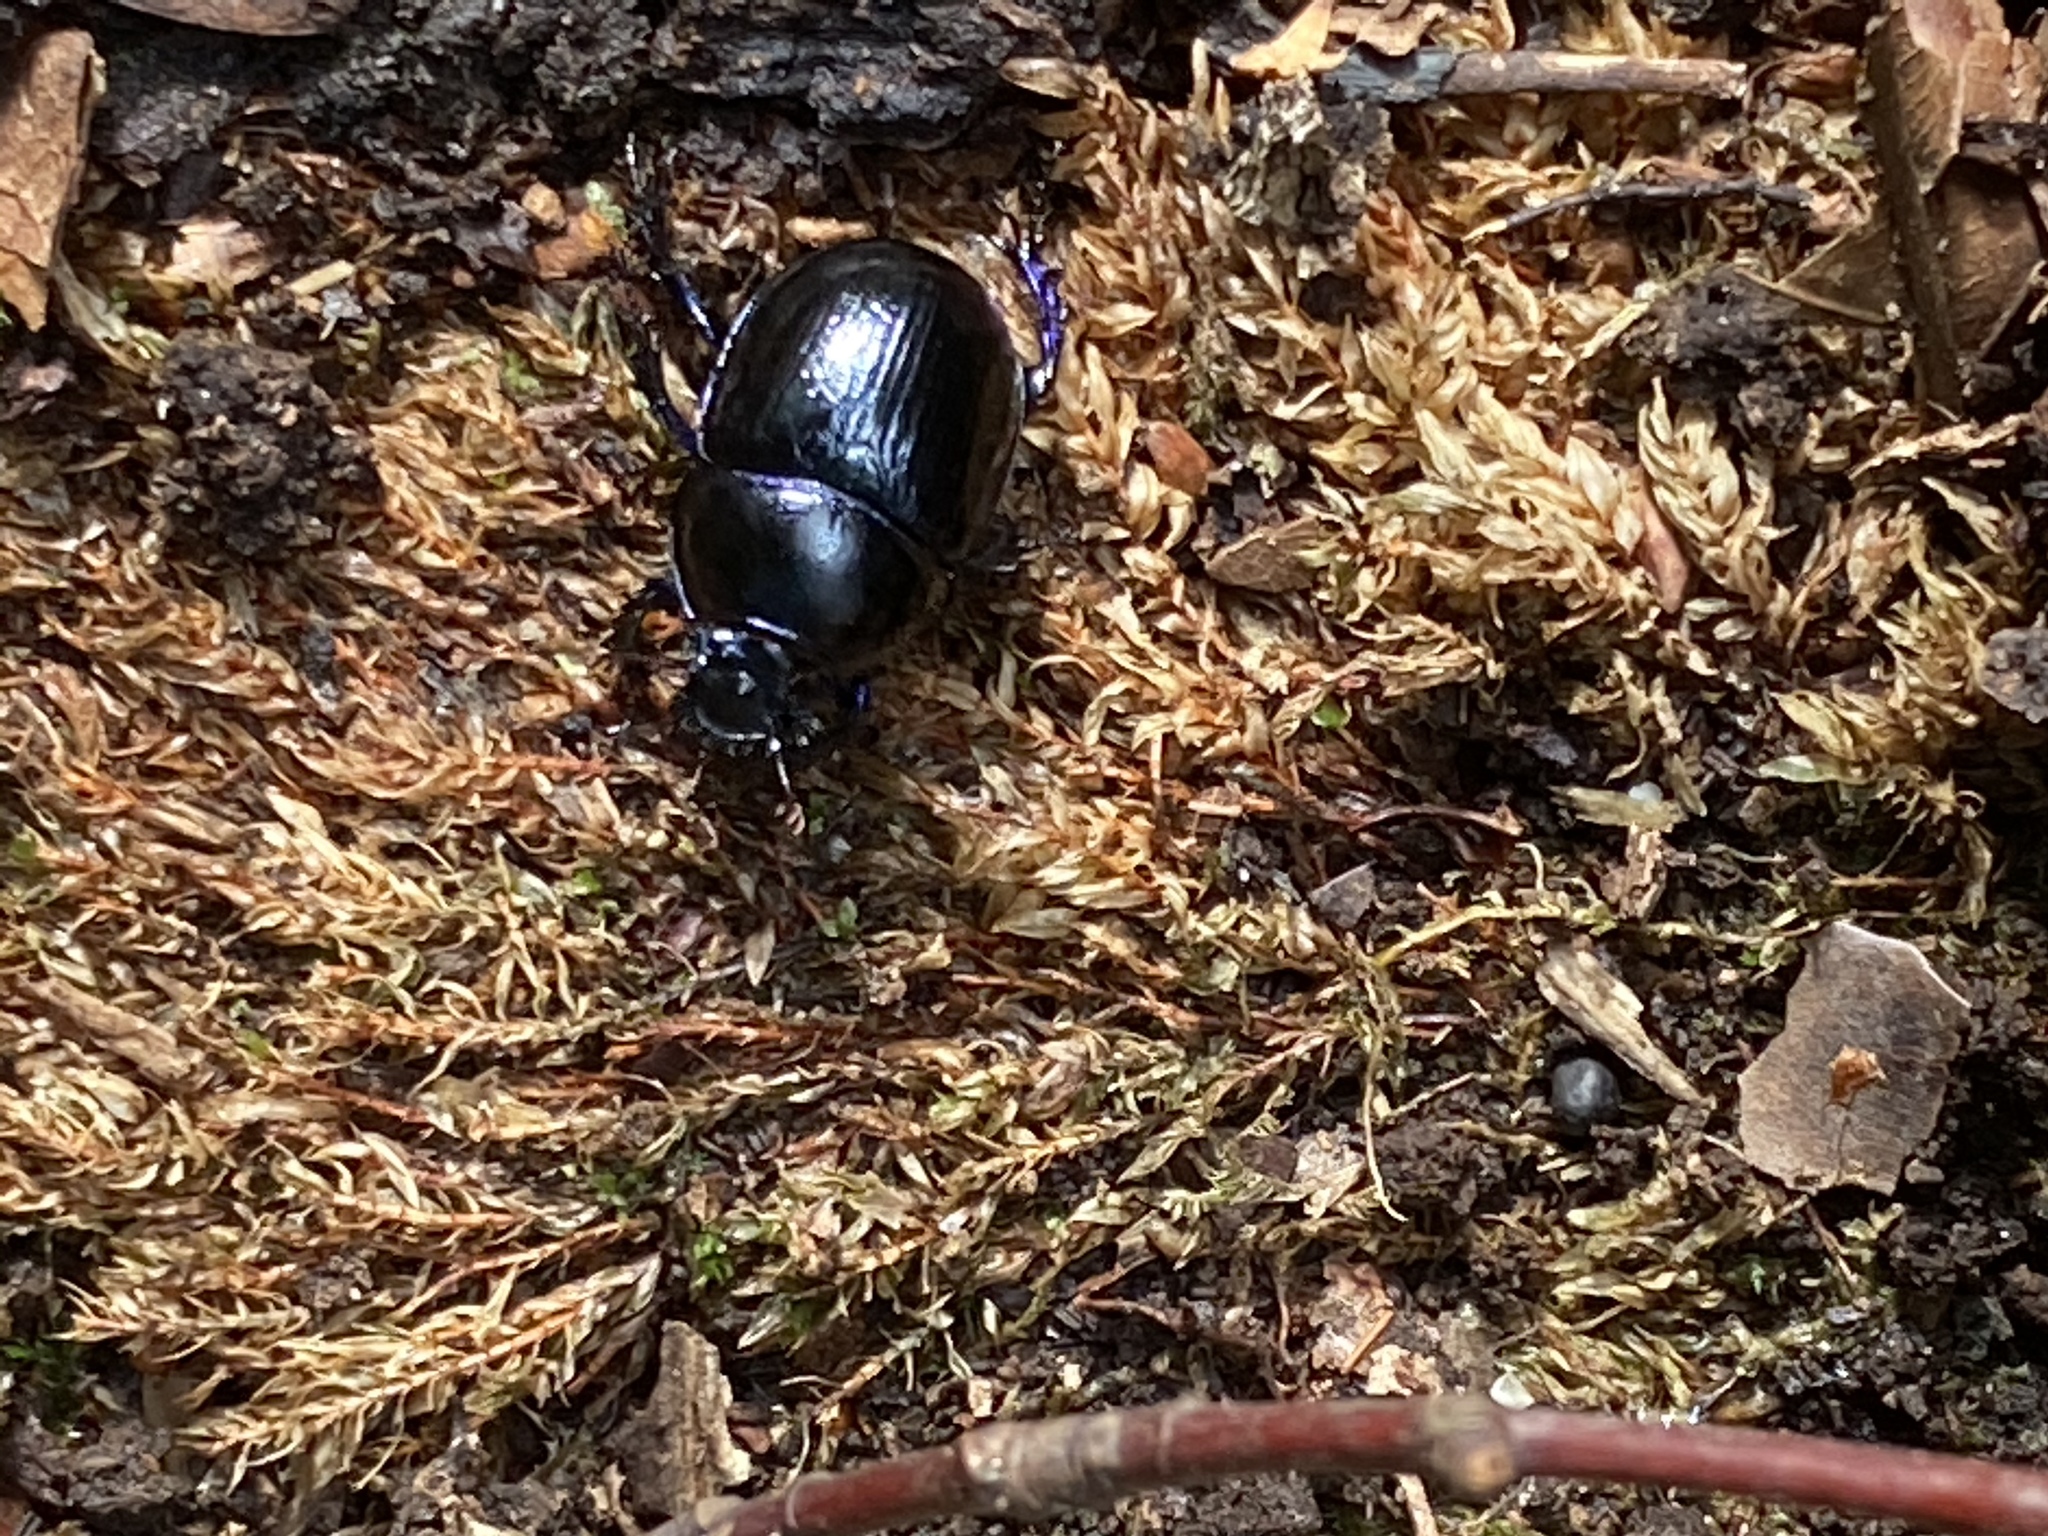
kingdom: Animalia
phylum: Arthropoda
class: Insecta
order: Coleoptera
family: Geotrupidae
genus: Anoplotrupes
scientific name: Anoplotrupes stercorosus
